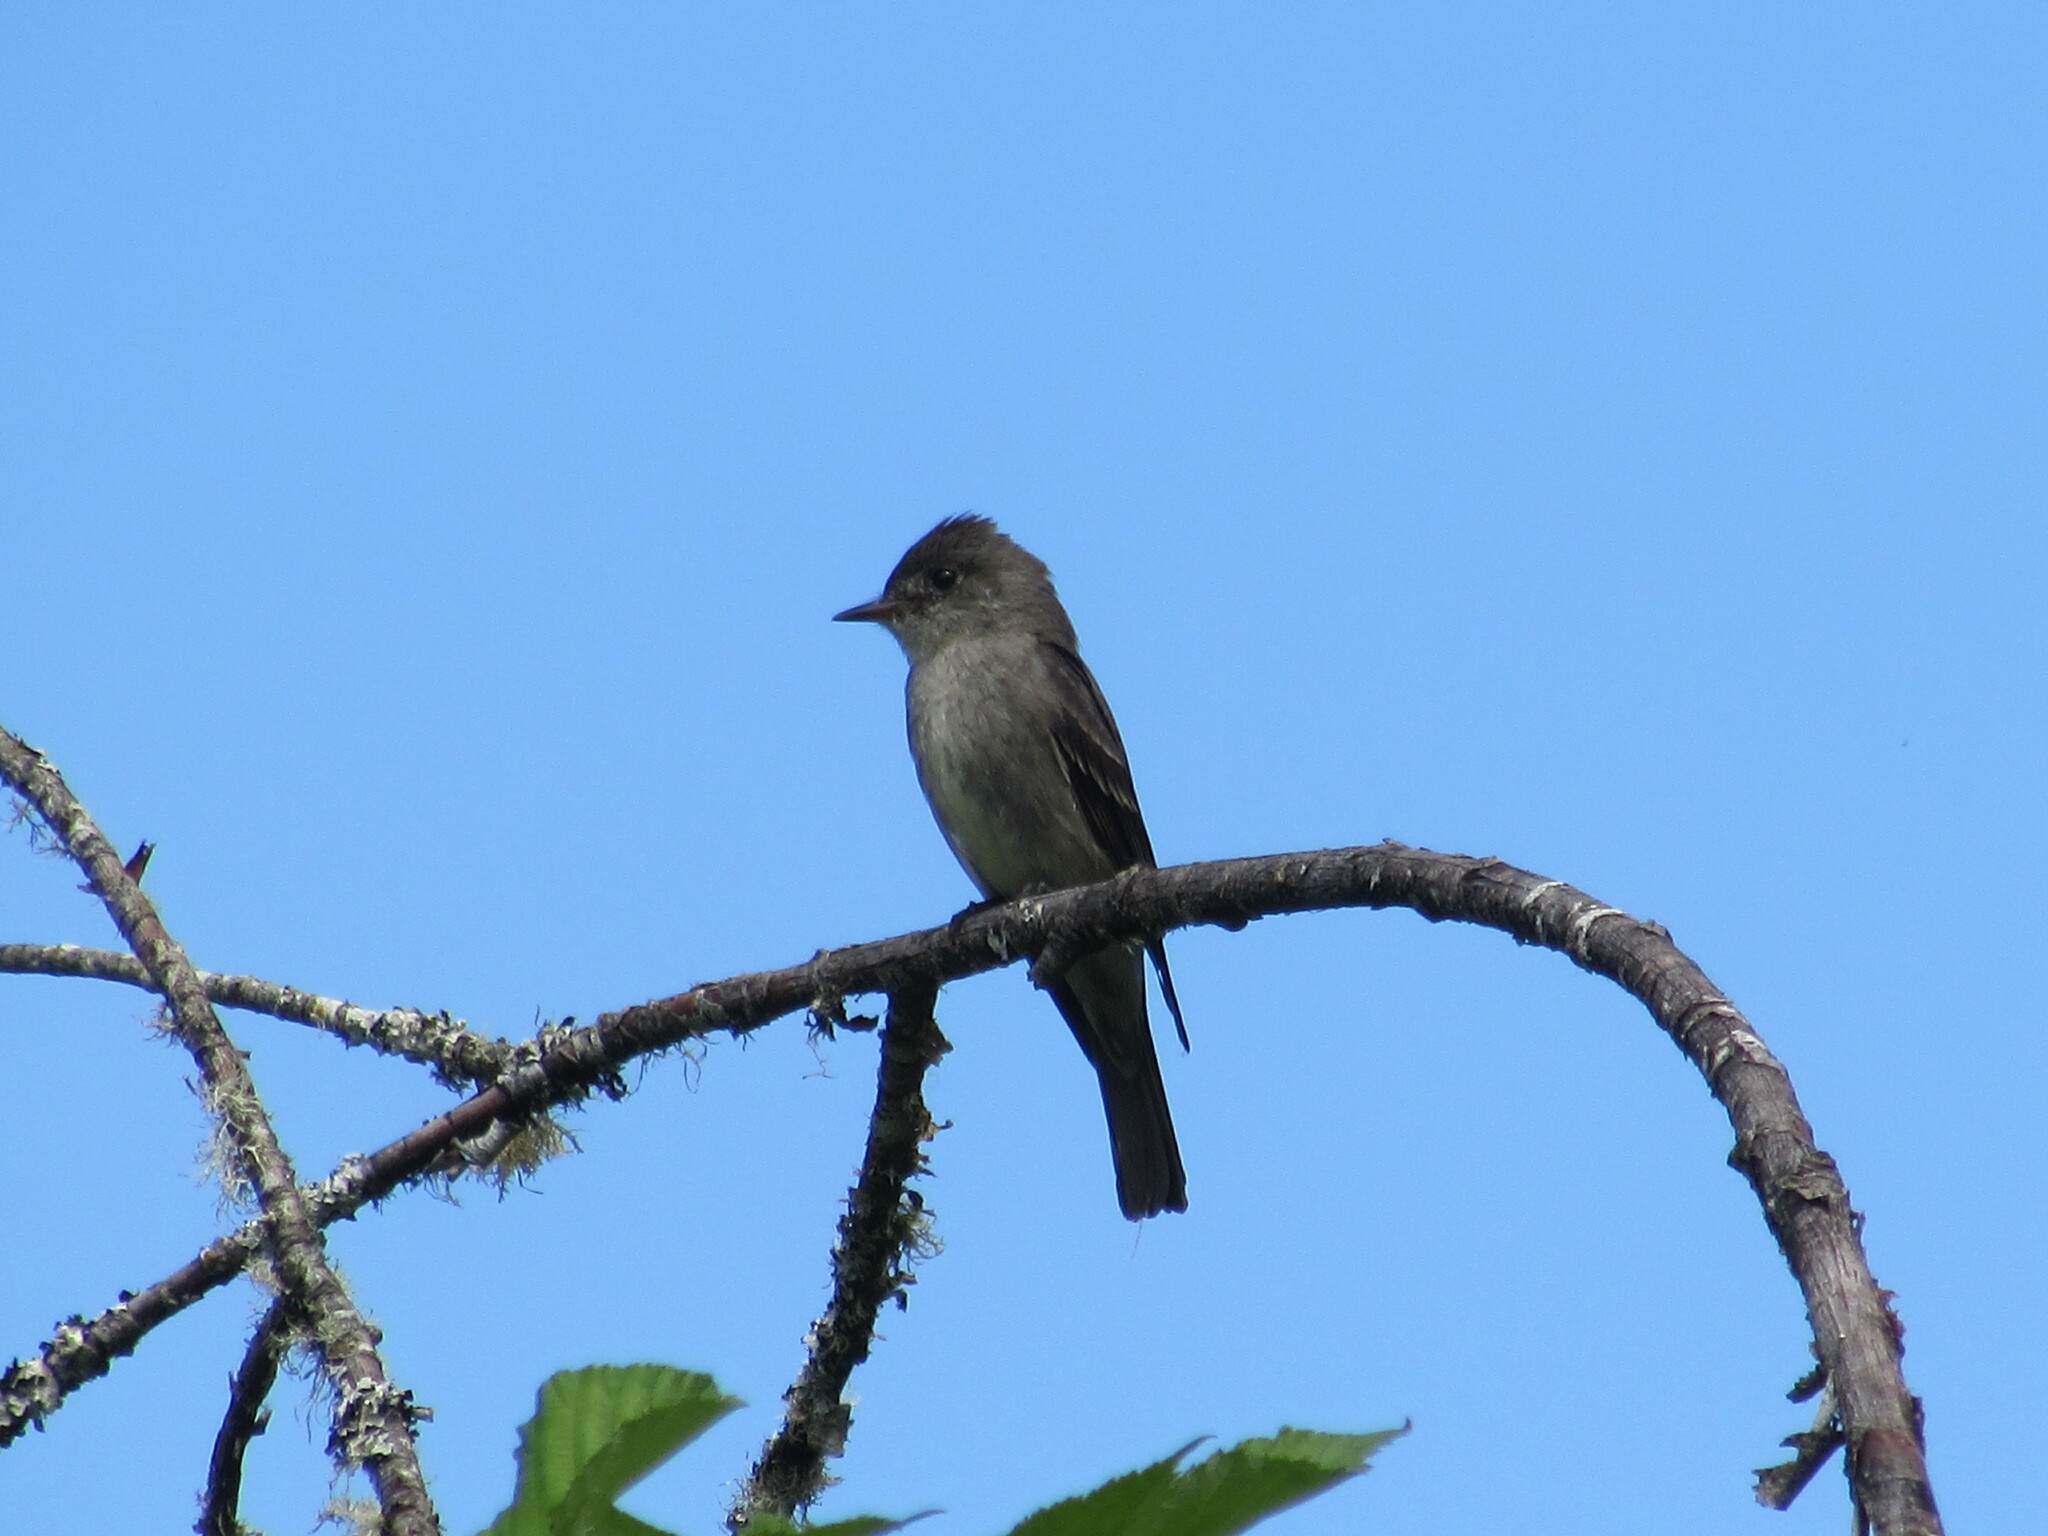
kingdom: Animalia
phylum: Chordata
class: Aves
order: Passeriformes
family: Tyrannidae
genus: Contopus
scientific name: Contopus sordidulus
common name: Western wood-pewee
